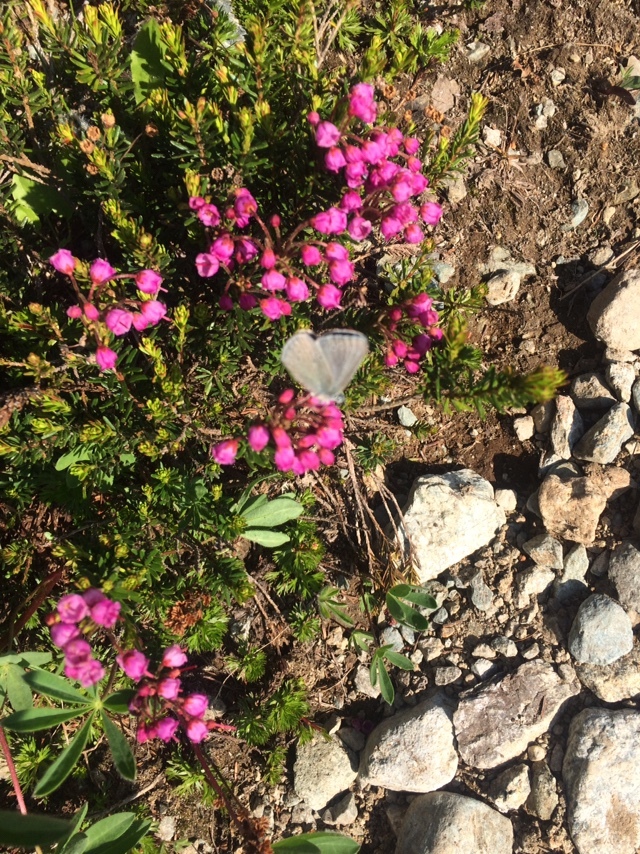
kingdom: Plantae
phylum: Tracheophyta
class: Magnoliopsida
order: Ericales
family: Ericaceae
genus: Phyllodoce
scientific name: Phyllodoce empetriformis
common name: Pink mountain heather
